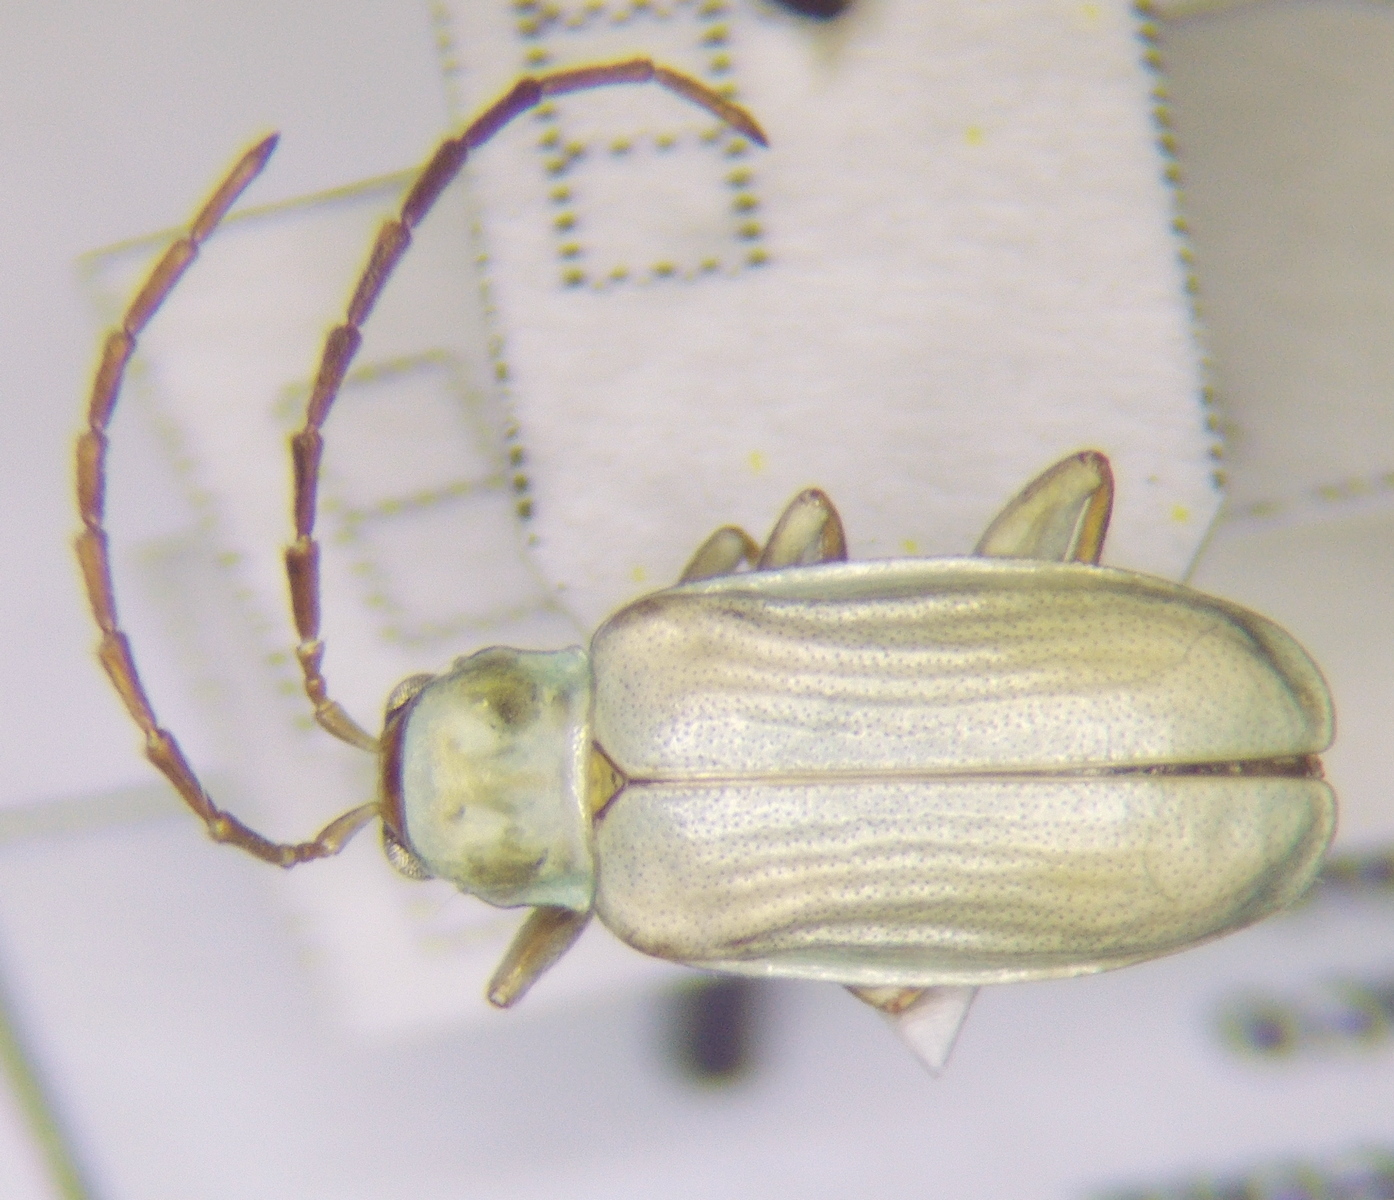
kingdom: Animalia
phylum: Arthropoda
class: Insecta
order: Coleoptera
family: Chrysomelidae
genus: Diabrotica
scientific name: Diabrotica virgifera
